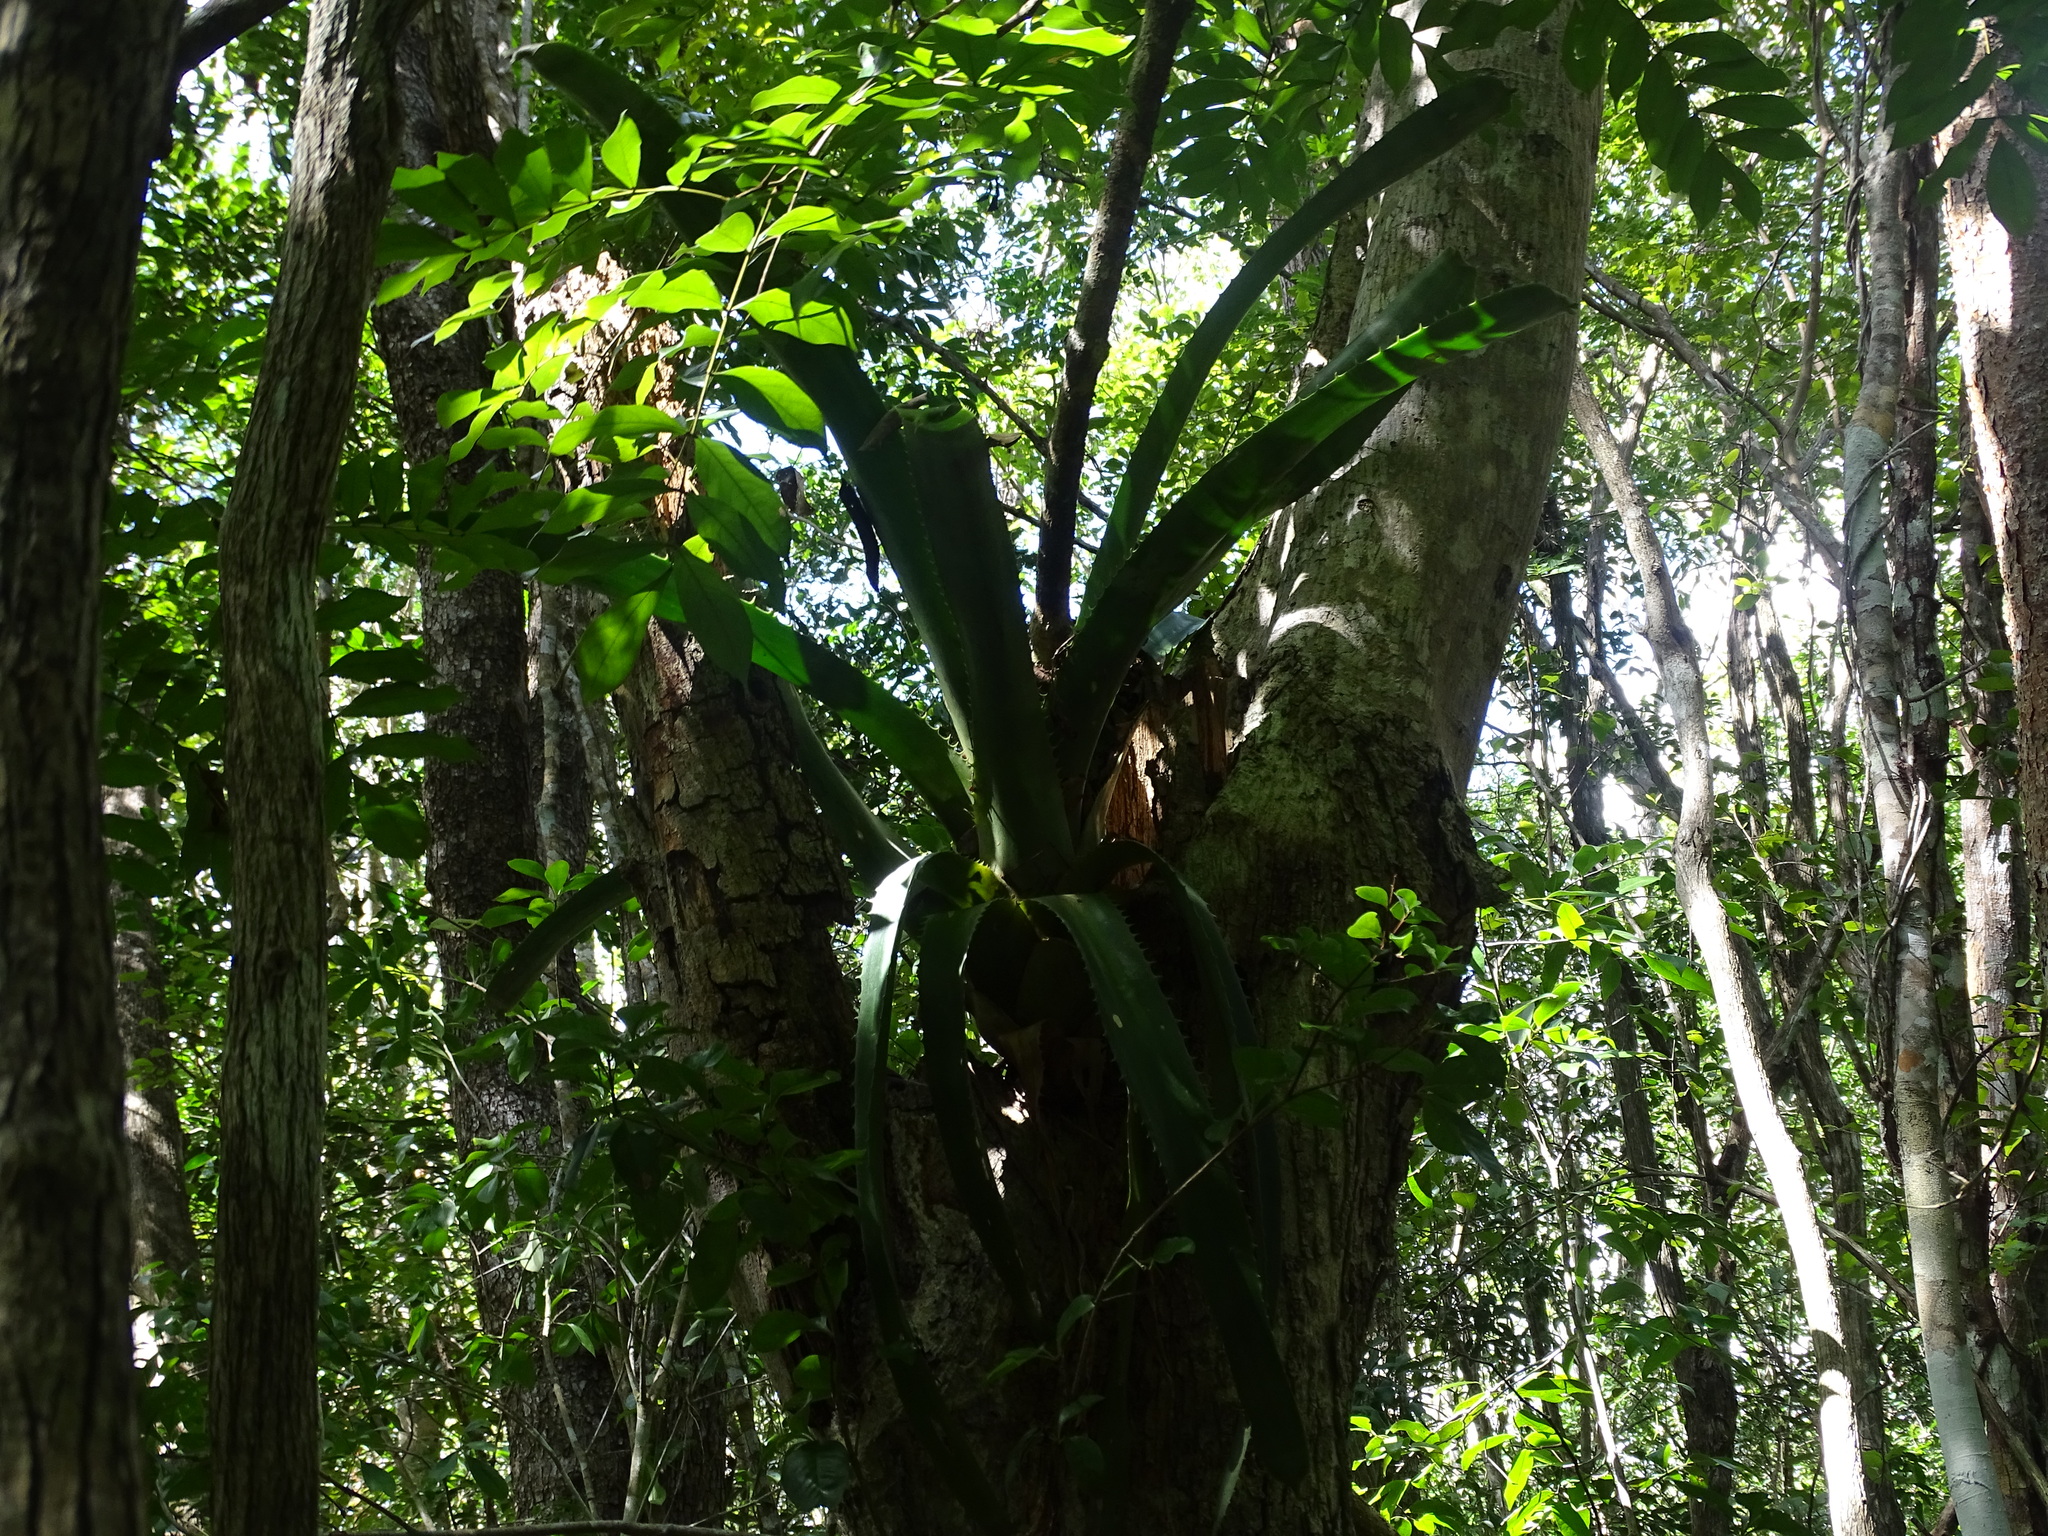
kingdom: Plantae
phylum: Tracheophyta
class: Liliopsida
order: Poales
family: Bromeliaceae
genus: Aechmea
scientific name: Aechmea bracteata
